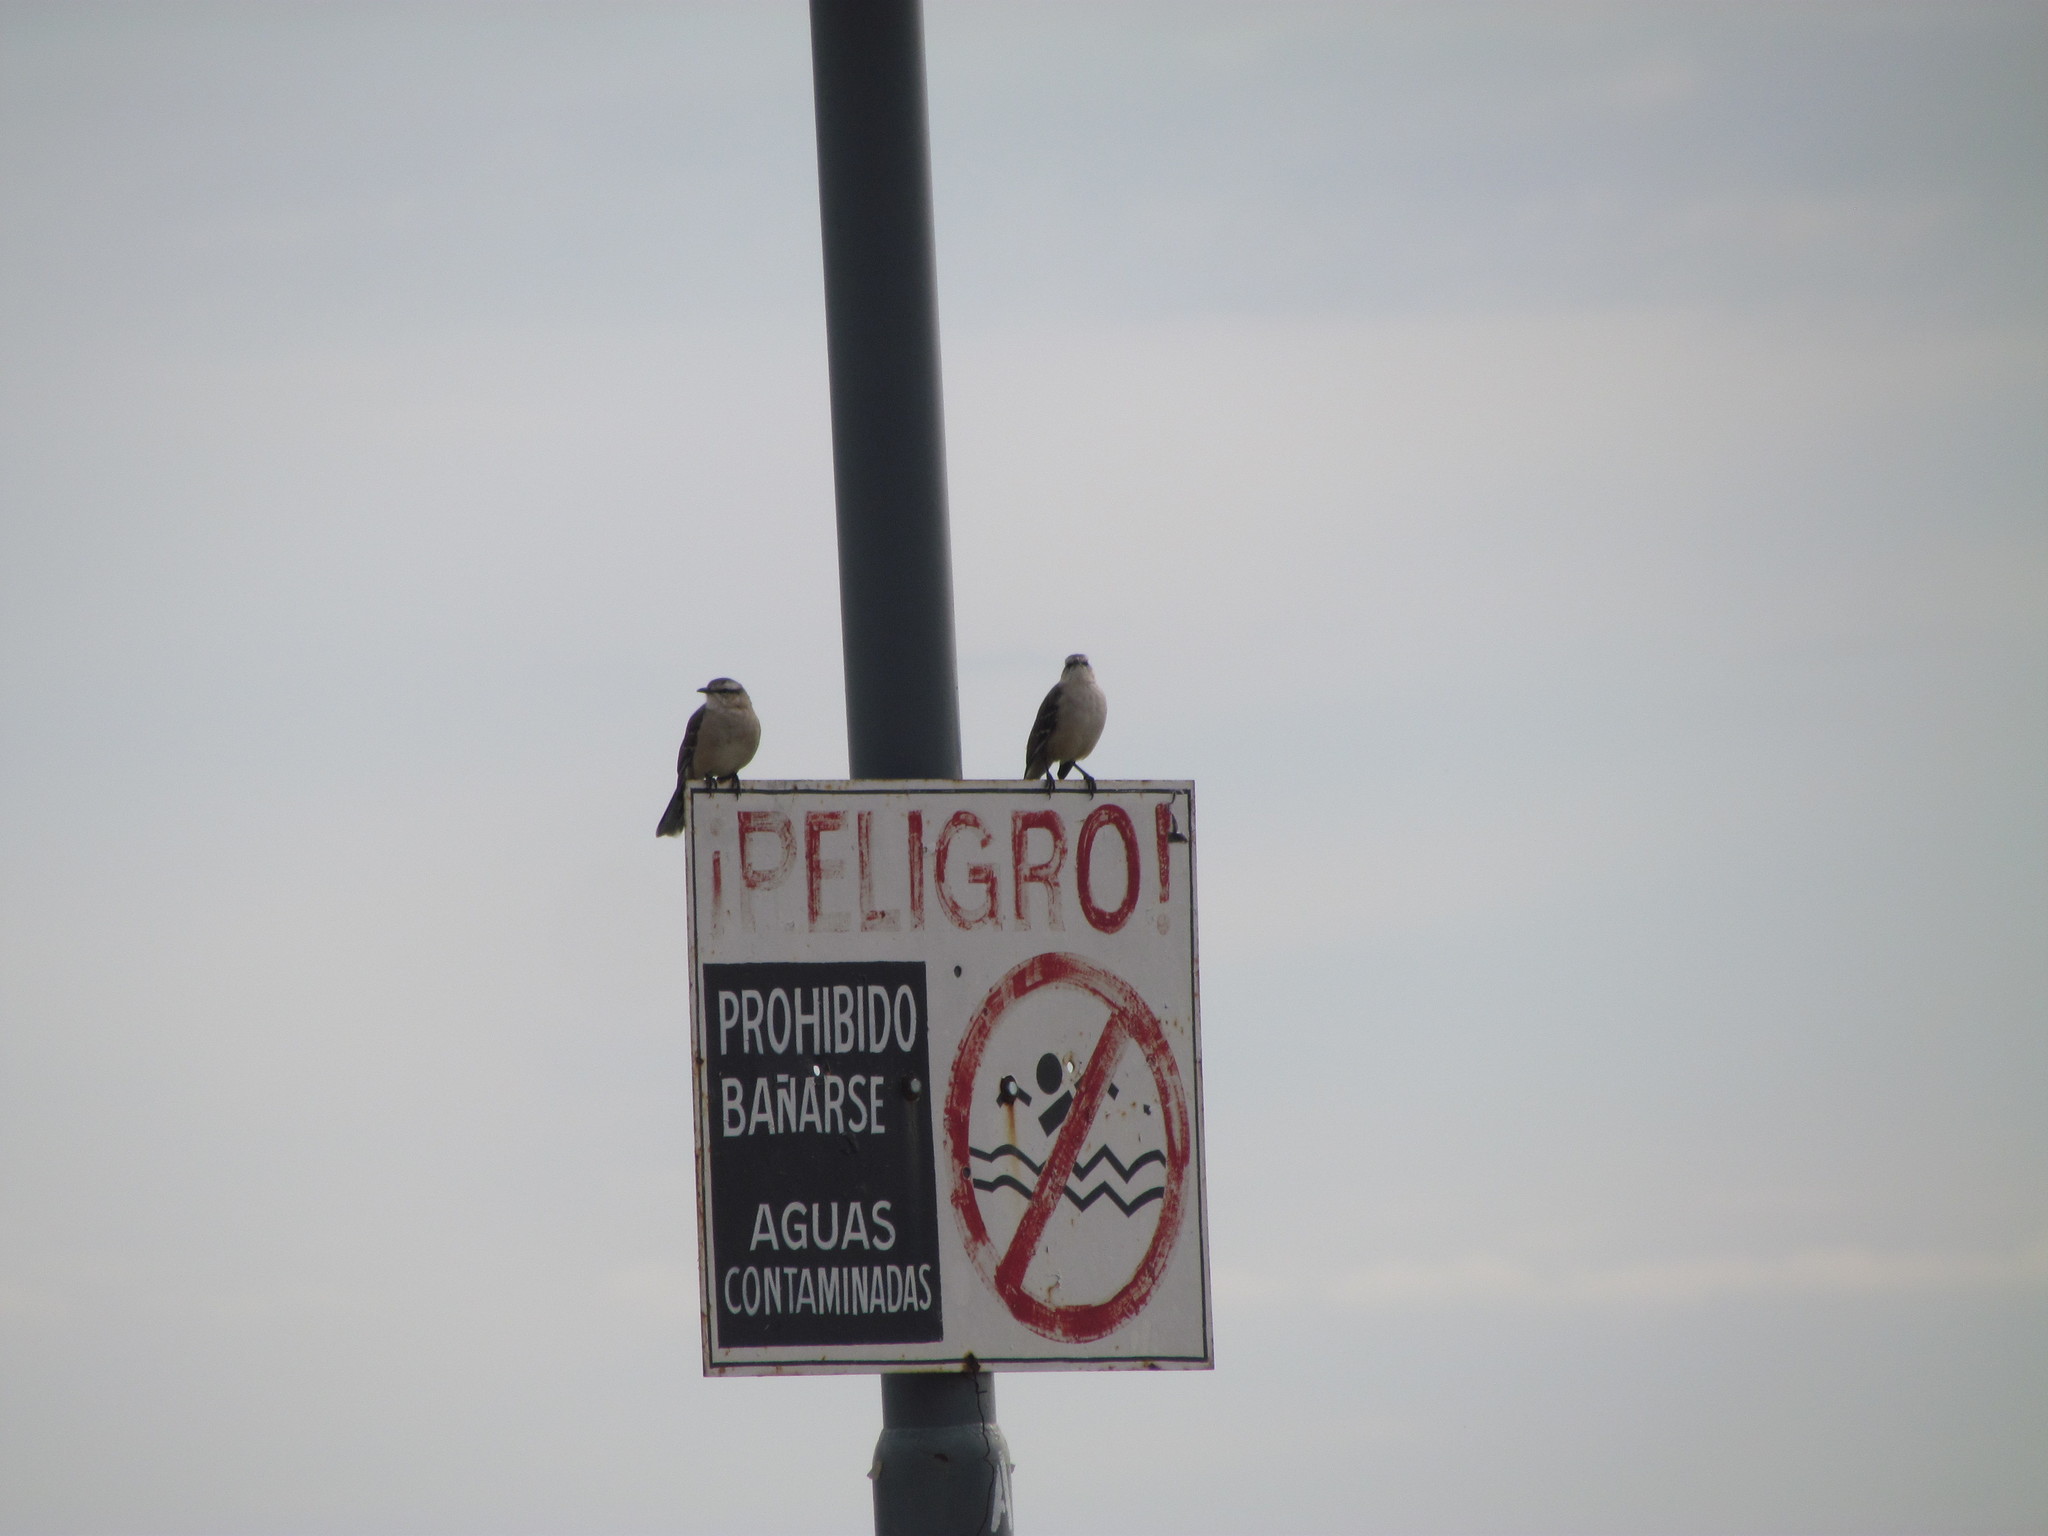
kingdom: Animalia
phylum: Chordata
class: Aves
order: Passeriformes
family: Mimidae
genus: Mimus
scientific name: Mimus saturninus
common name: Chalk-browed mockingbird
